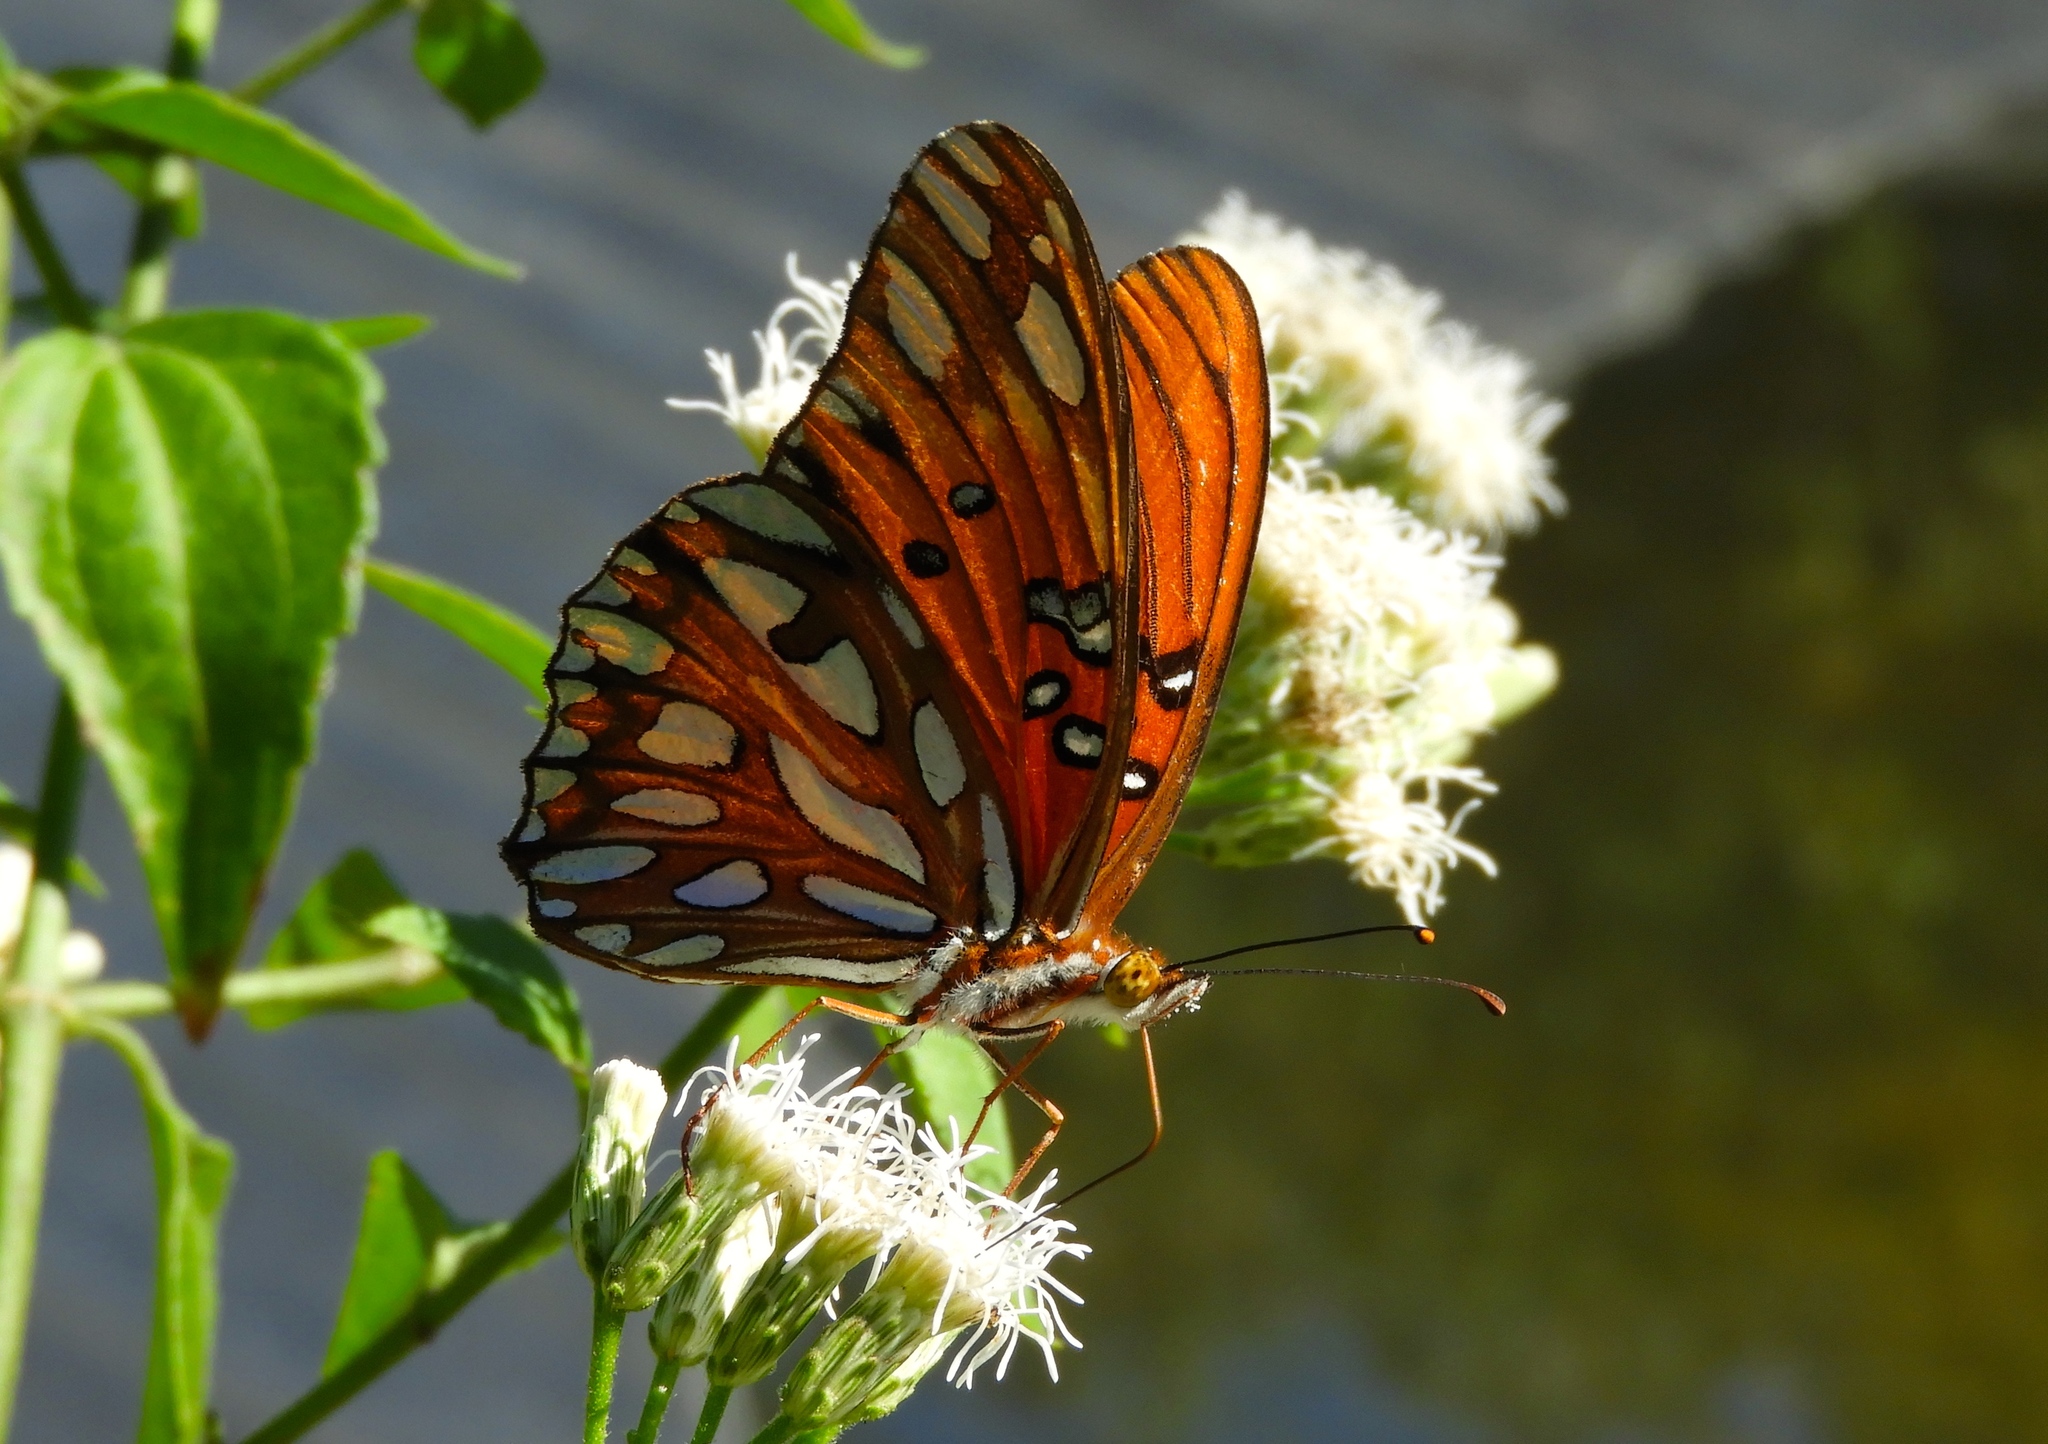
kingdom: Animalia
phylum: Arthropoda
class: Insecta
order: Lepidoptera
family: Nymphalidae
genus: Dione
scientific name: Dione vanillae
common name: Gulf fritillary
